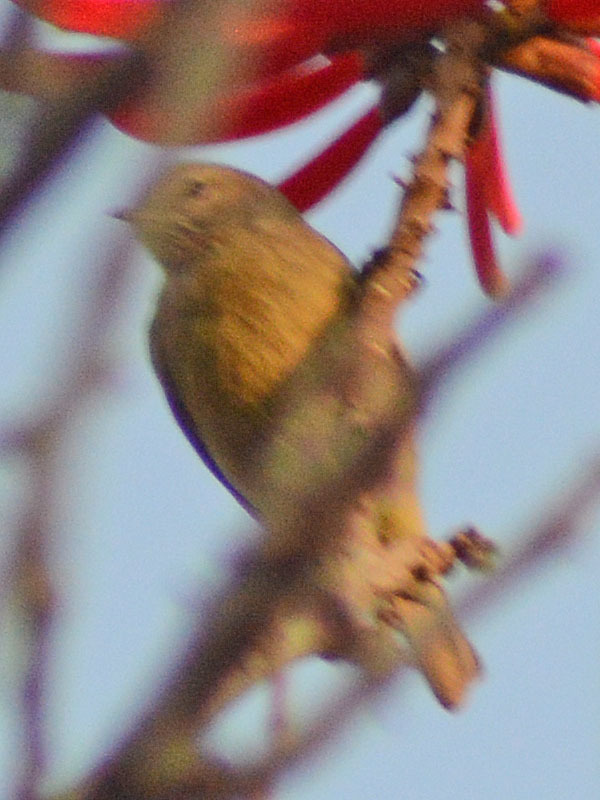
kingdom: Animalia
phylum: Chordata
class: Aves
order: Passeriformes
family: Parulidae
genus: Leiothlypis
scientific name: Leiothlypis celata
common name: Orange-crowned warbler
